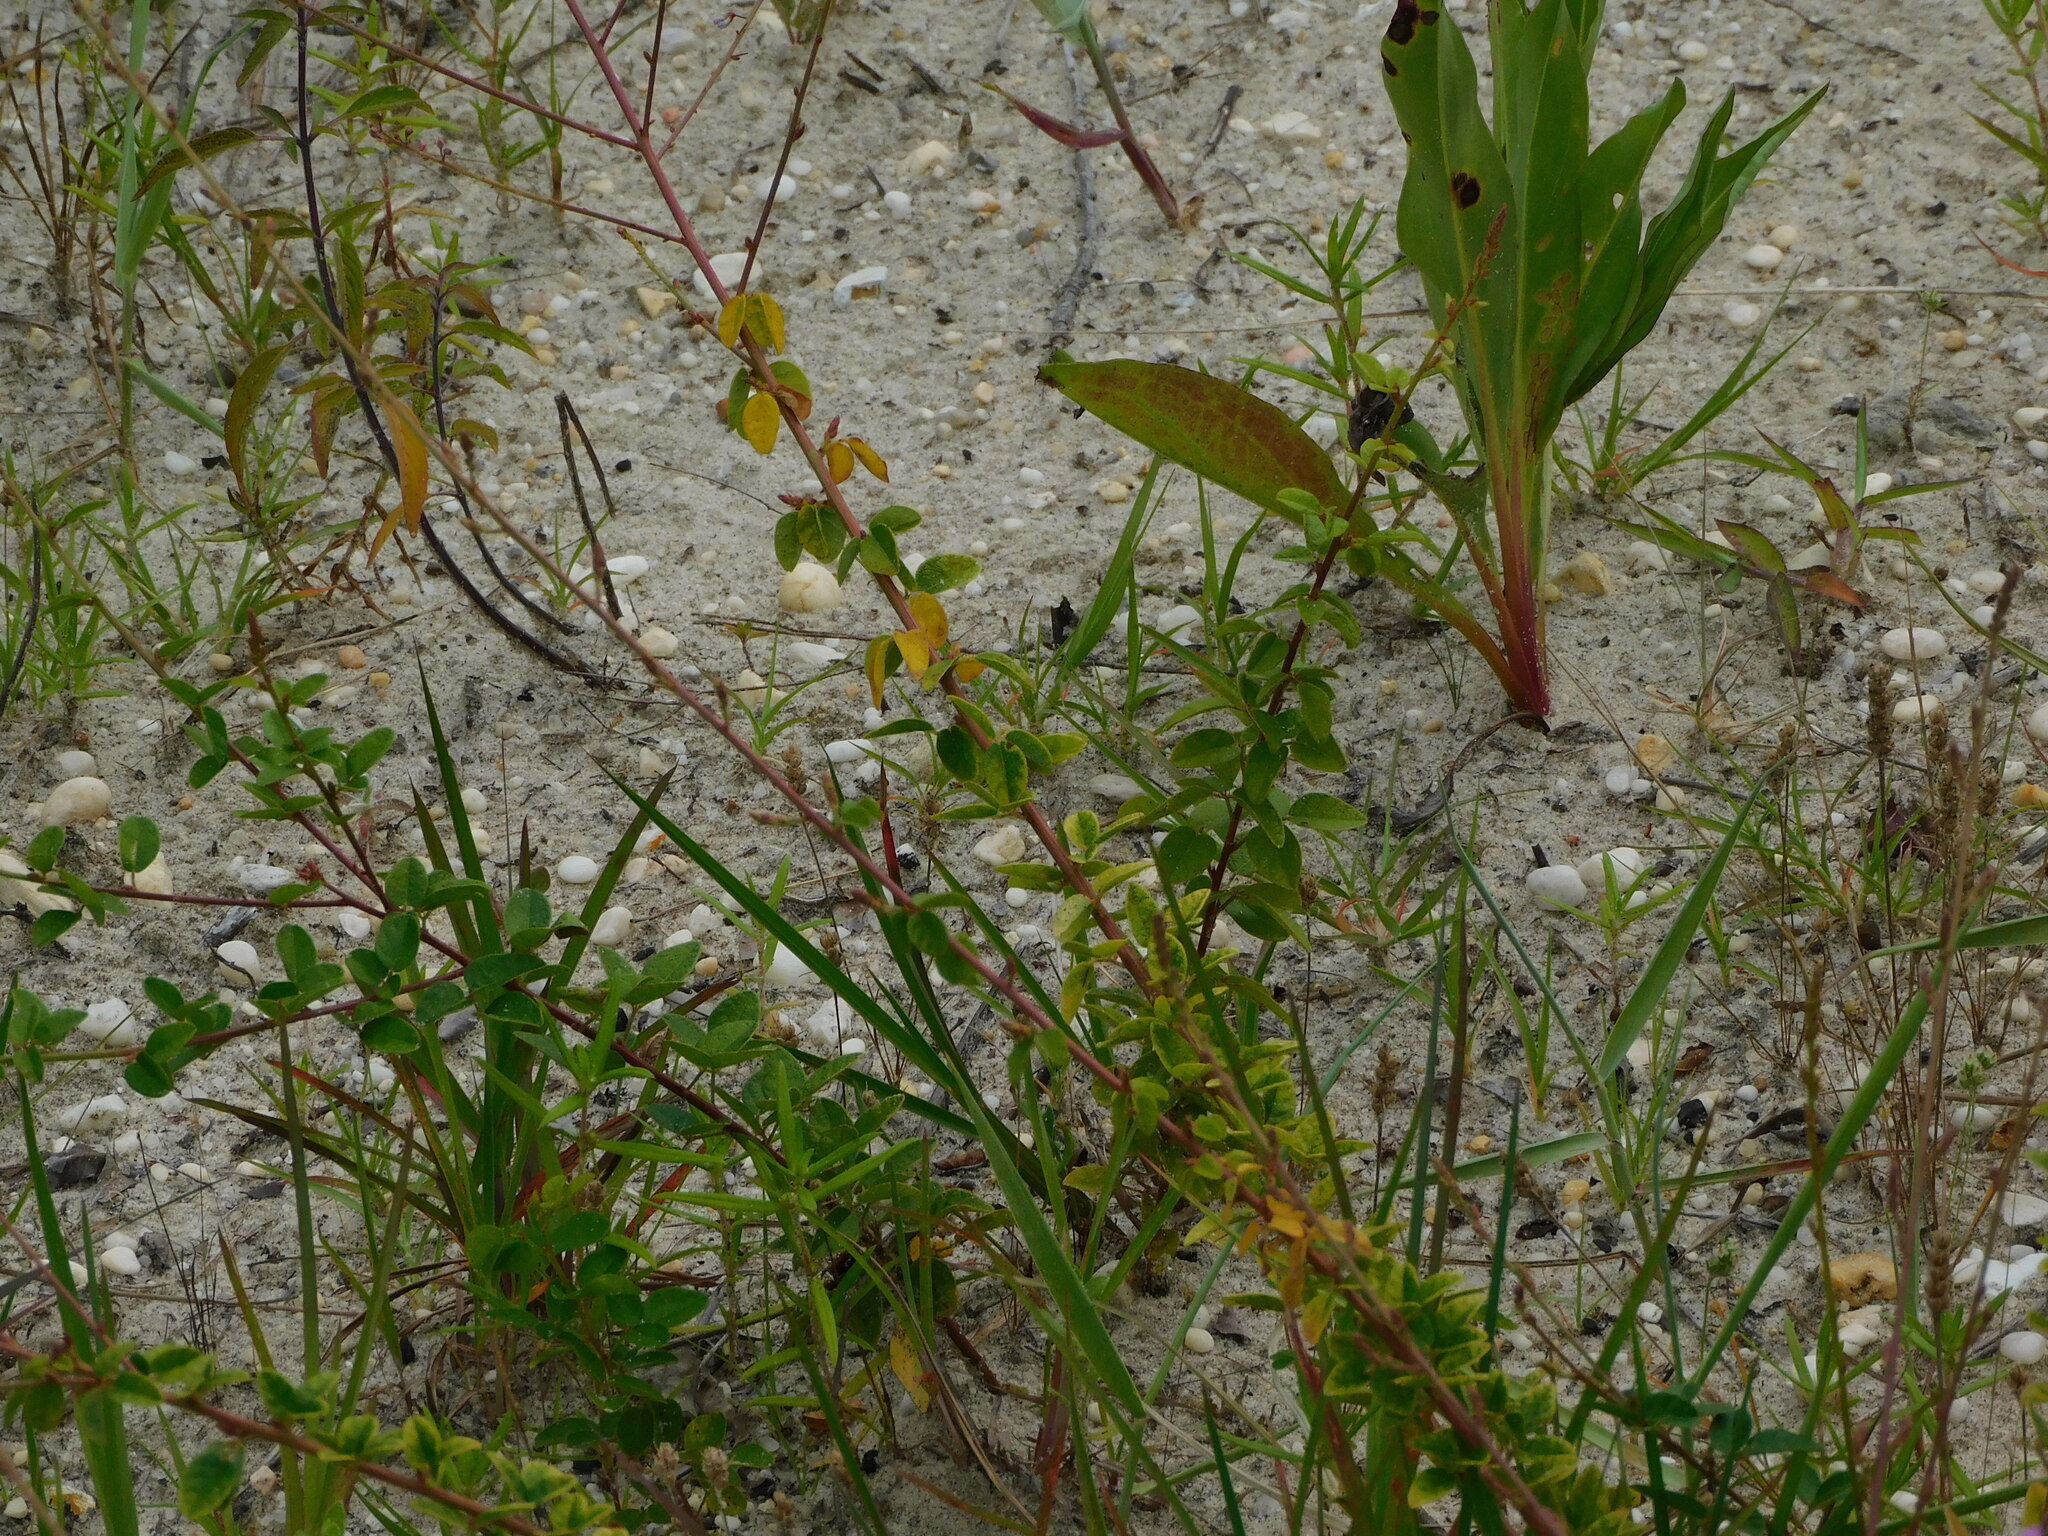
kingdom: Plantae
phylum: Tracheophyta
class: Magnoliopsida
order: Fabales
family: Fabaceae
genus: Desmodium
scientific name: Desmodium ciliare
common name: Hairy small-leaf ticktrefoil
